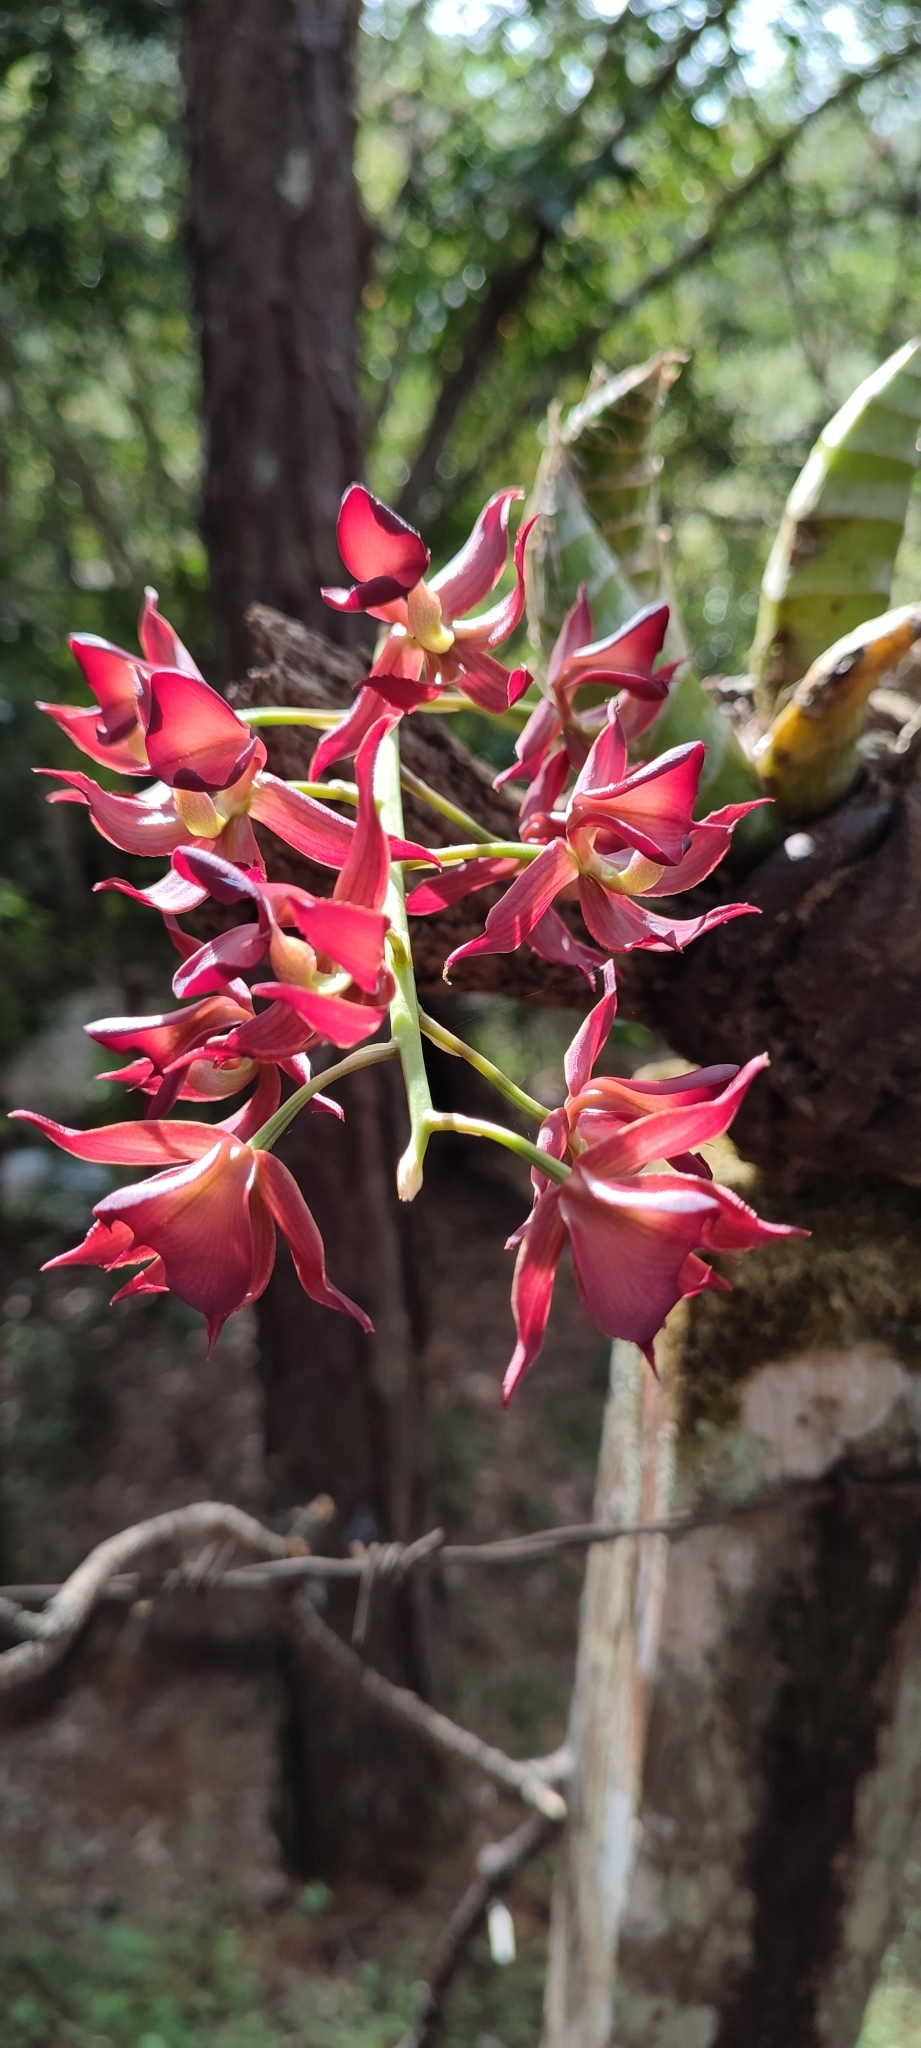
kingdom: Plantae
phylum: Tracheophyta
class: Liliopsida
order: Asparagales
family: Orchidaceae
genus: Mormodes
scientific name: Mormodes badia
